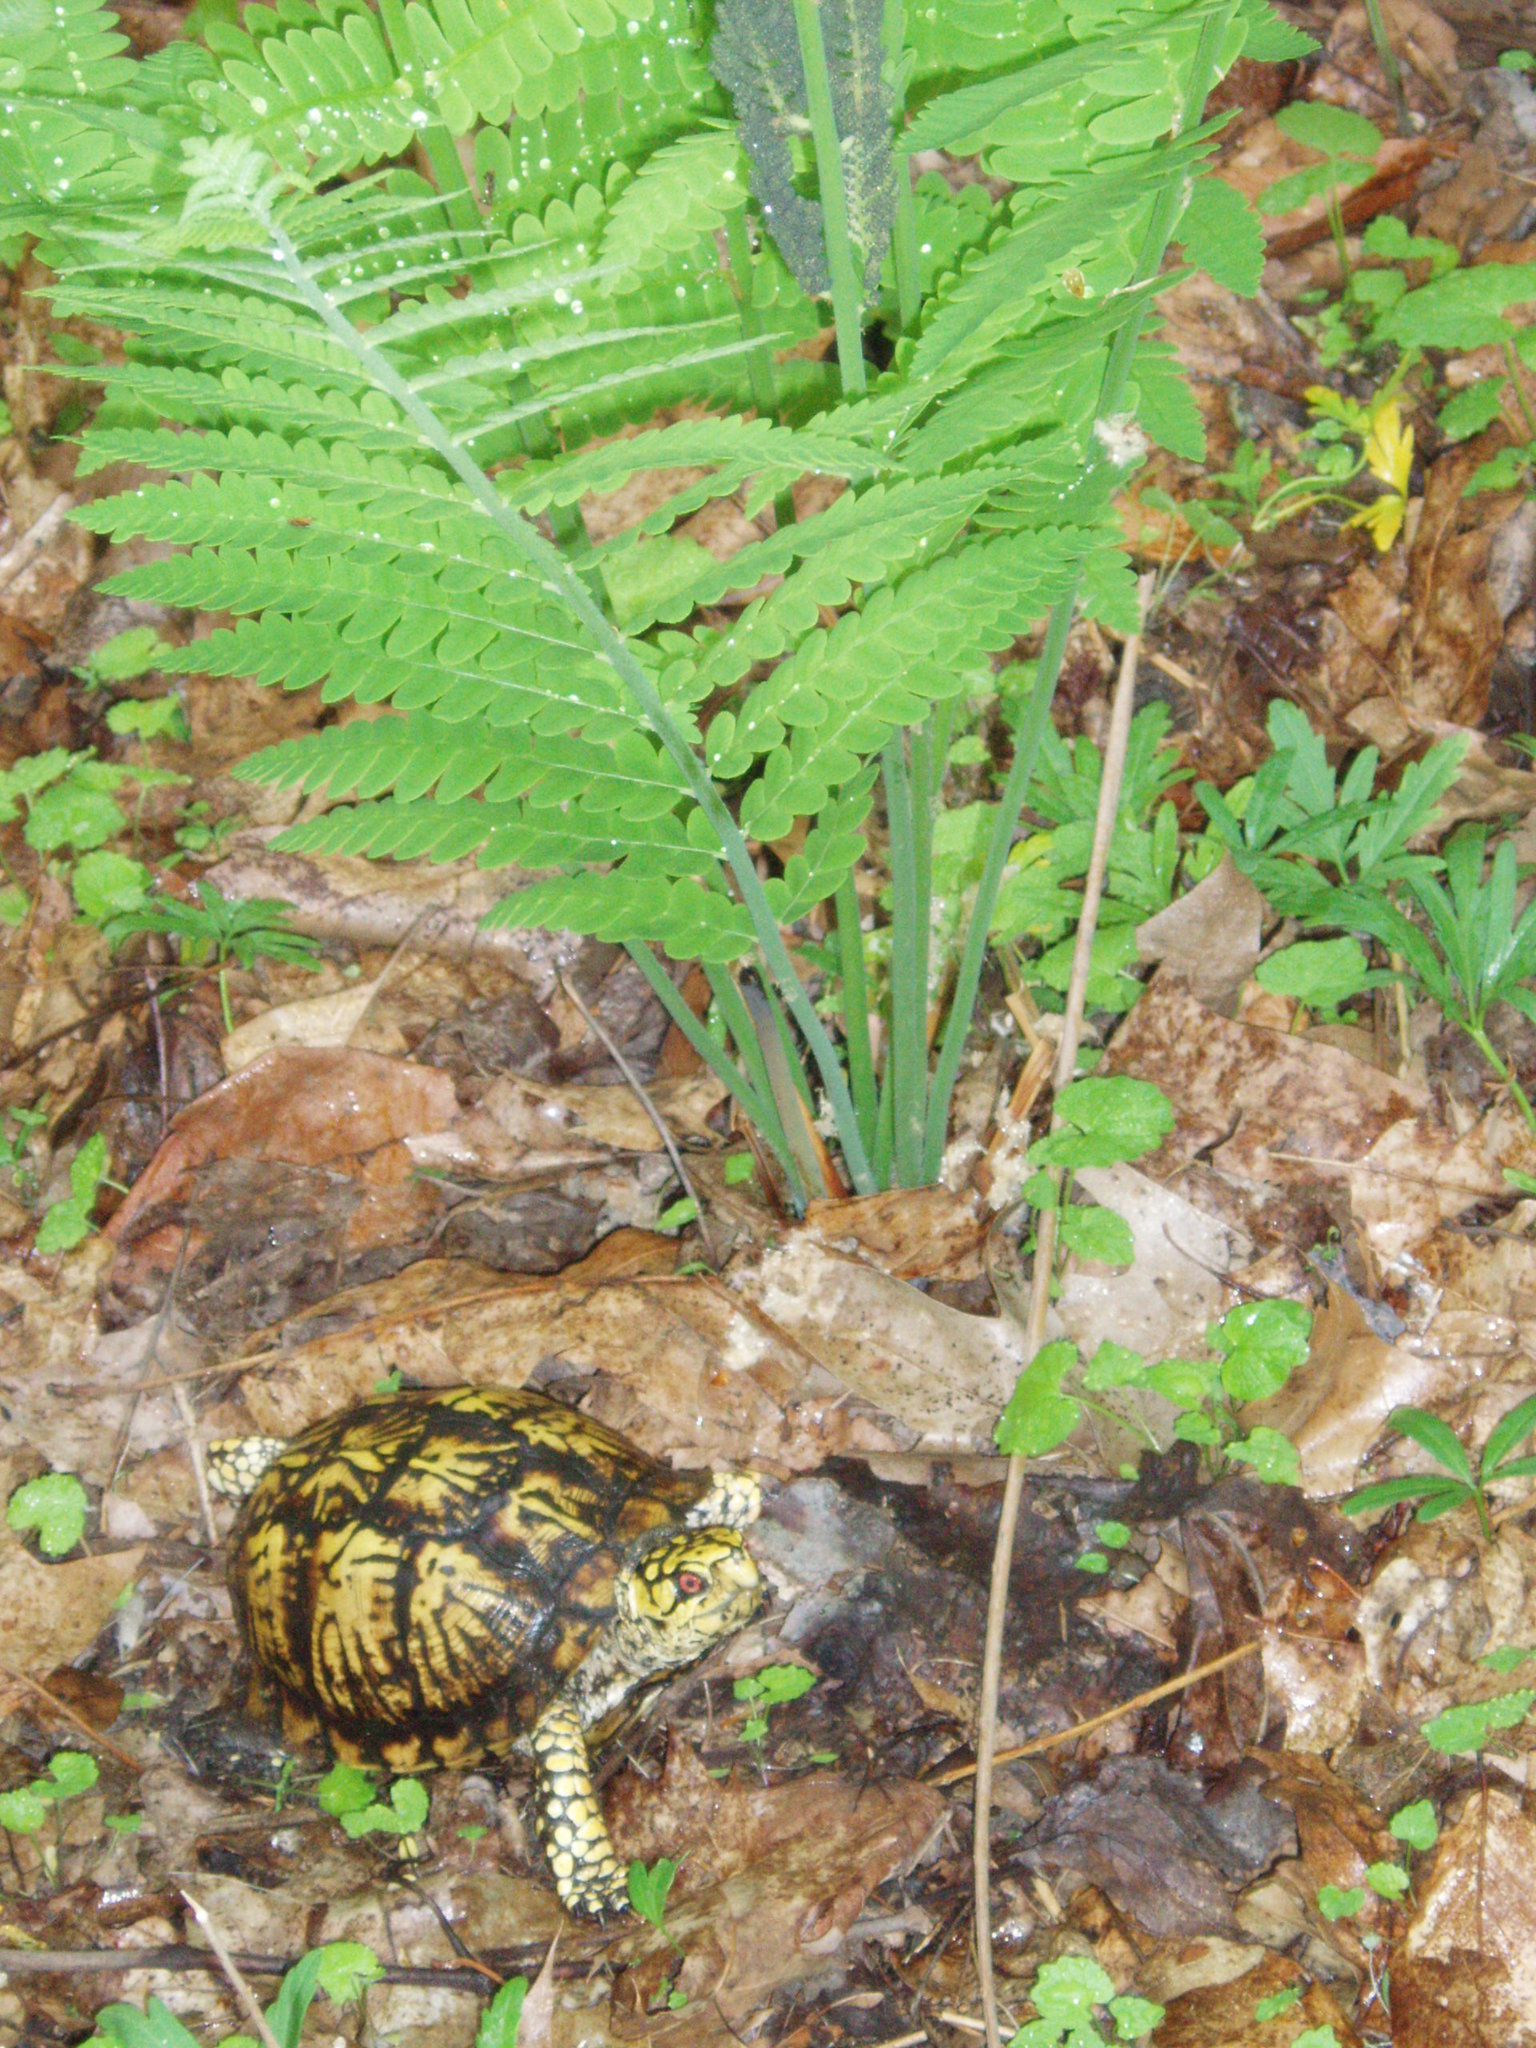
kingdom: Animalia
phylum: Chordata
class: Testudines
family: Emydidae
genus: Terrapene
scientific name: Terrapene carolina
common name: Common box turtle
